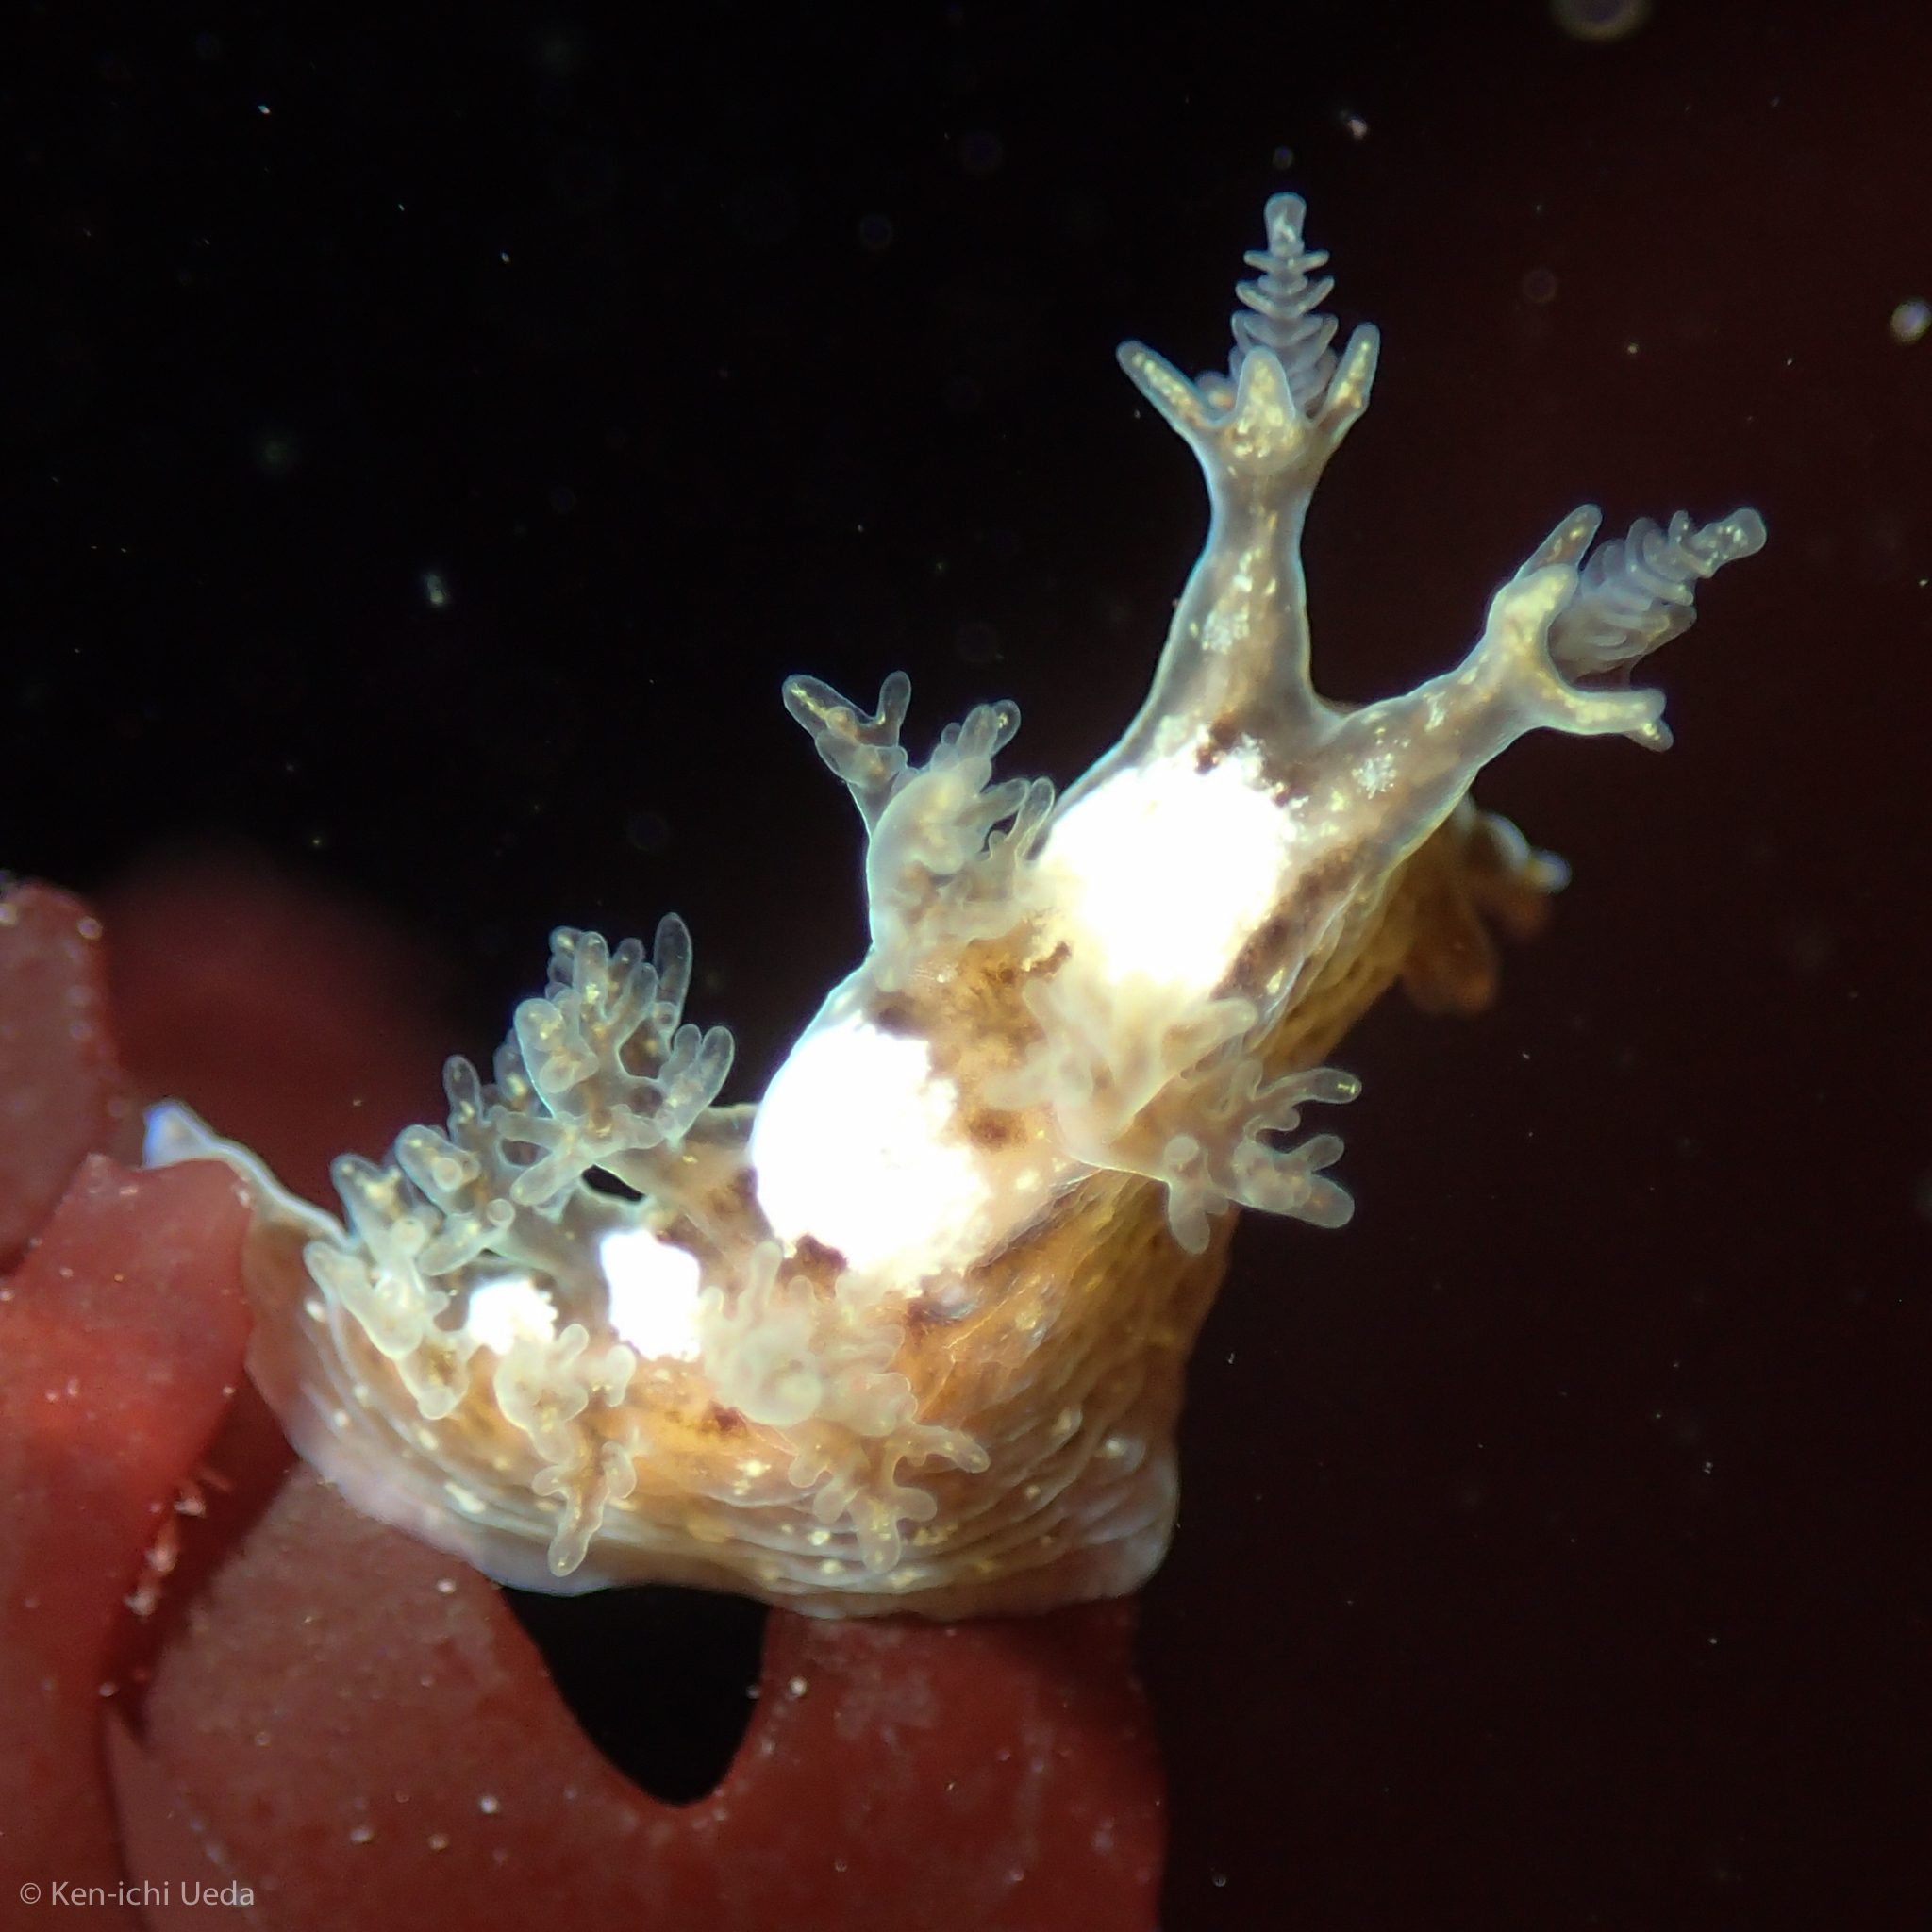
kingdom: Animalia
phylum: Mollusca
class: Gastropoda
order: Nudibranchia
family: Dendronotidae
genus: Dendronotus
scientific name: Dendronotus subramosus
